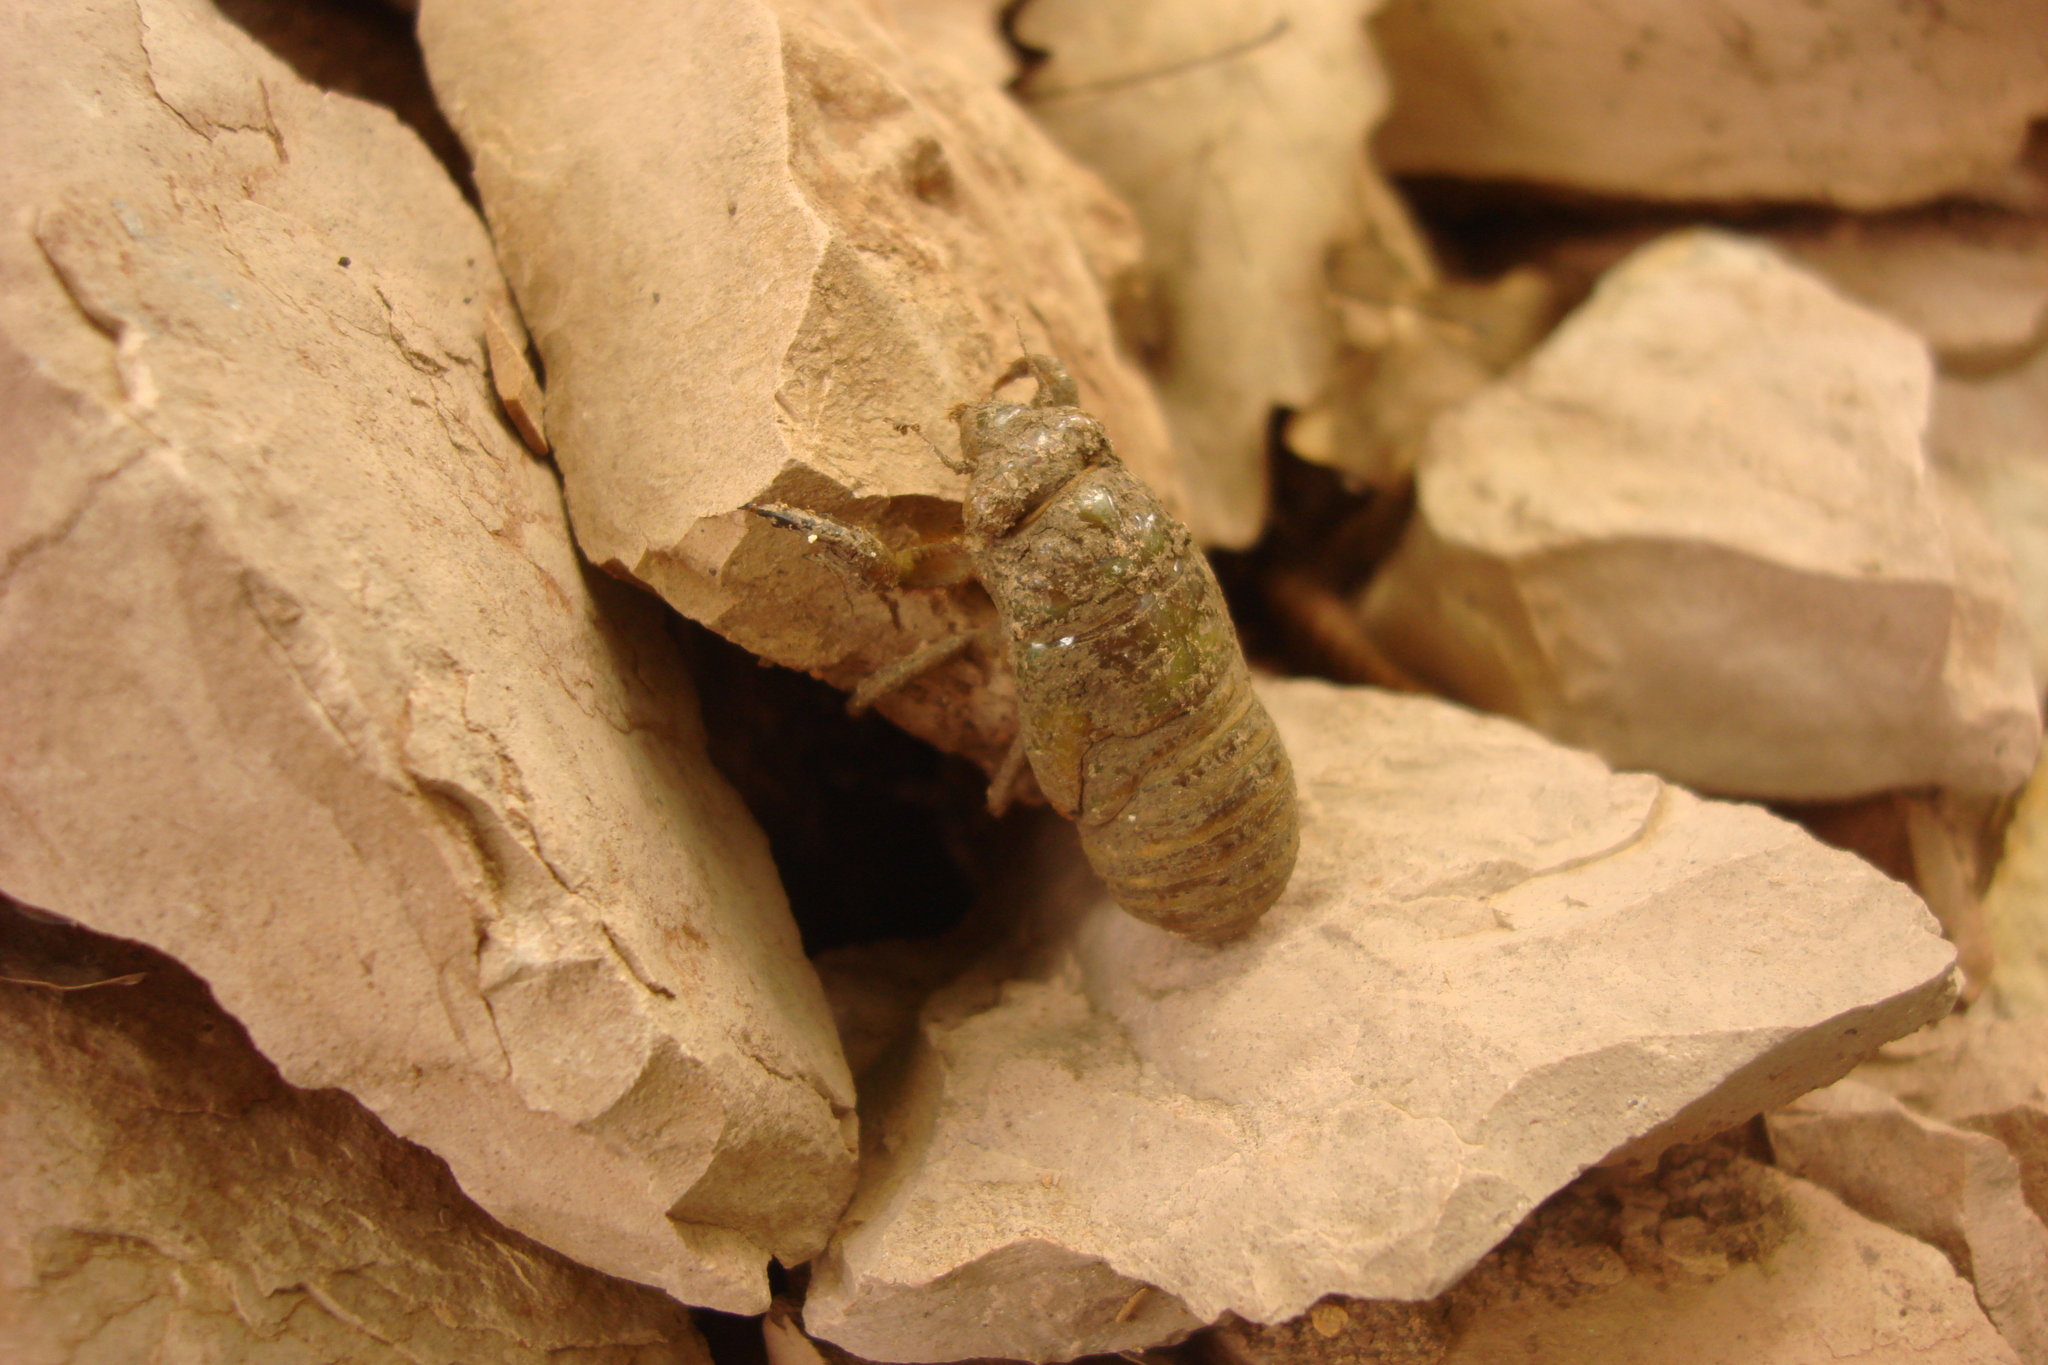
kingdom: Animalia
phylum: Arthropoda
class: Insecta
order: Hemiptera
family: Cicadidae
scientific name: Cicadidae
